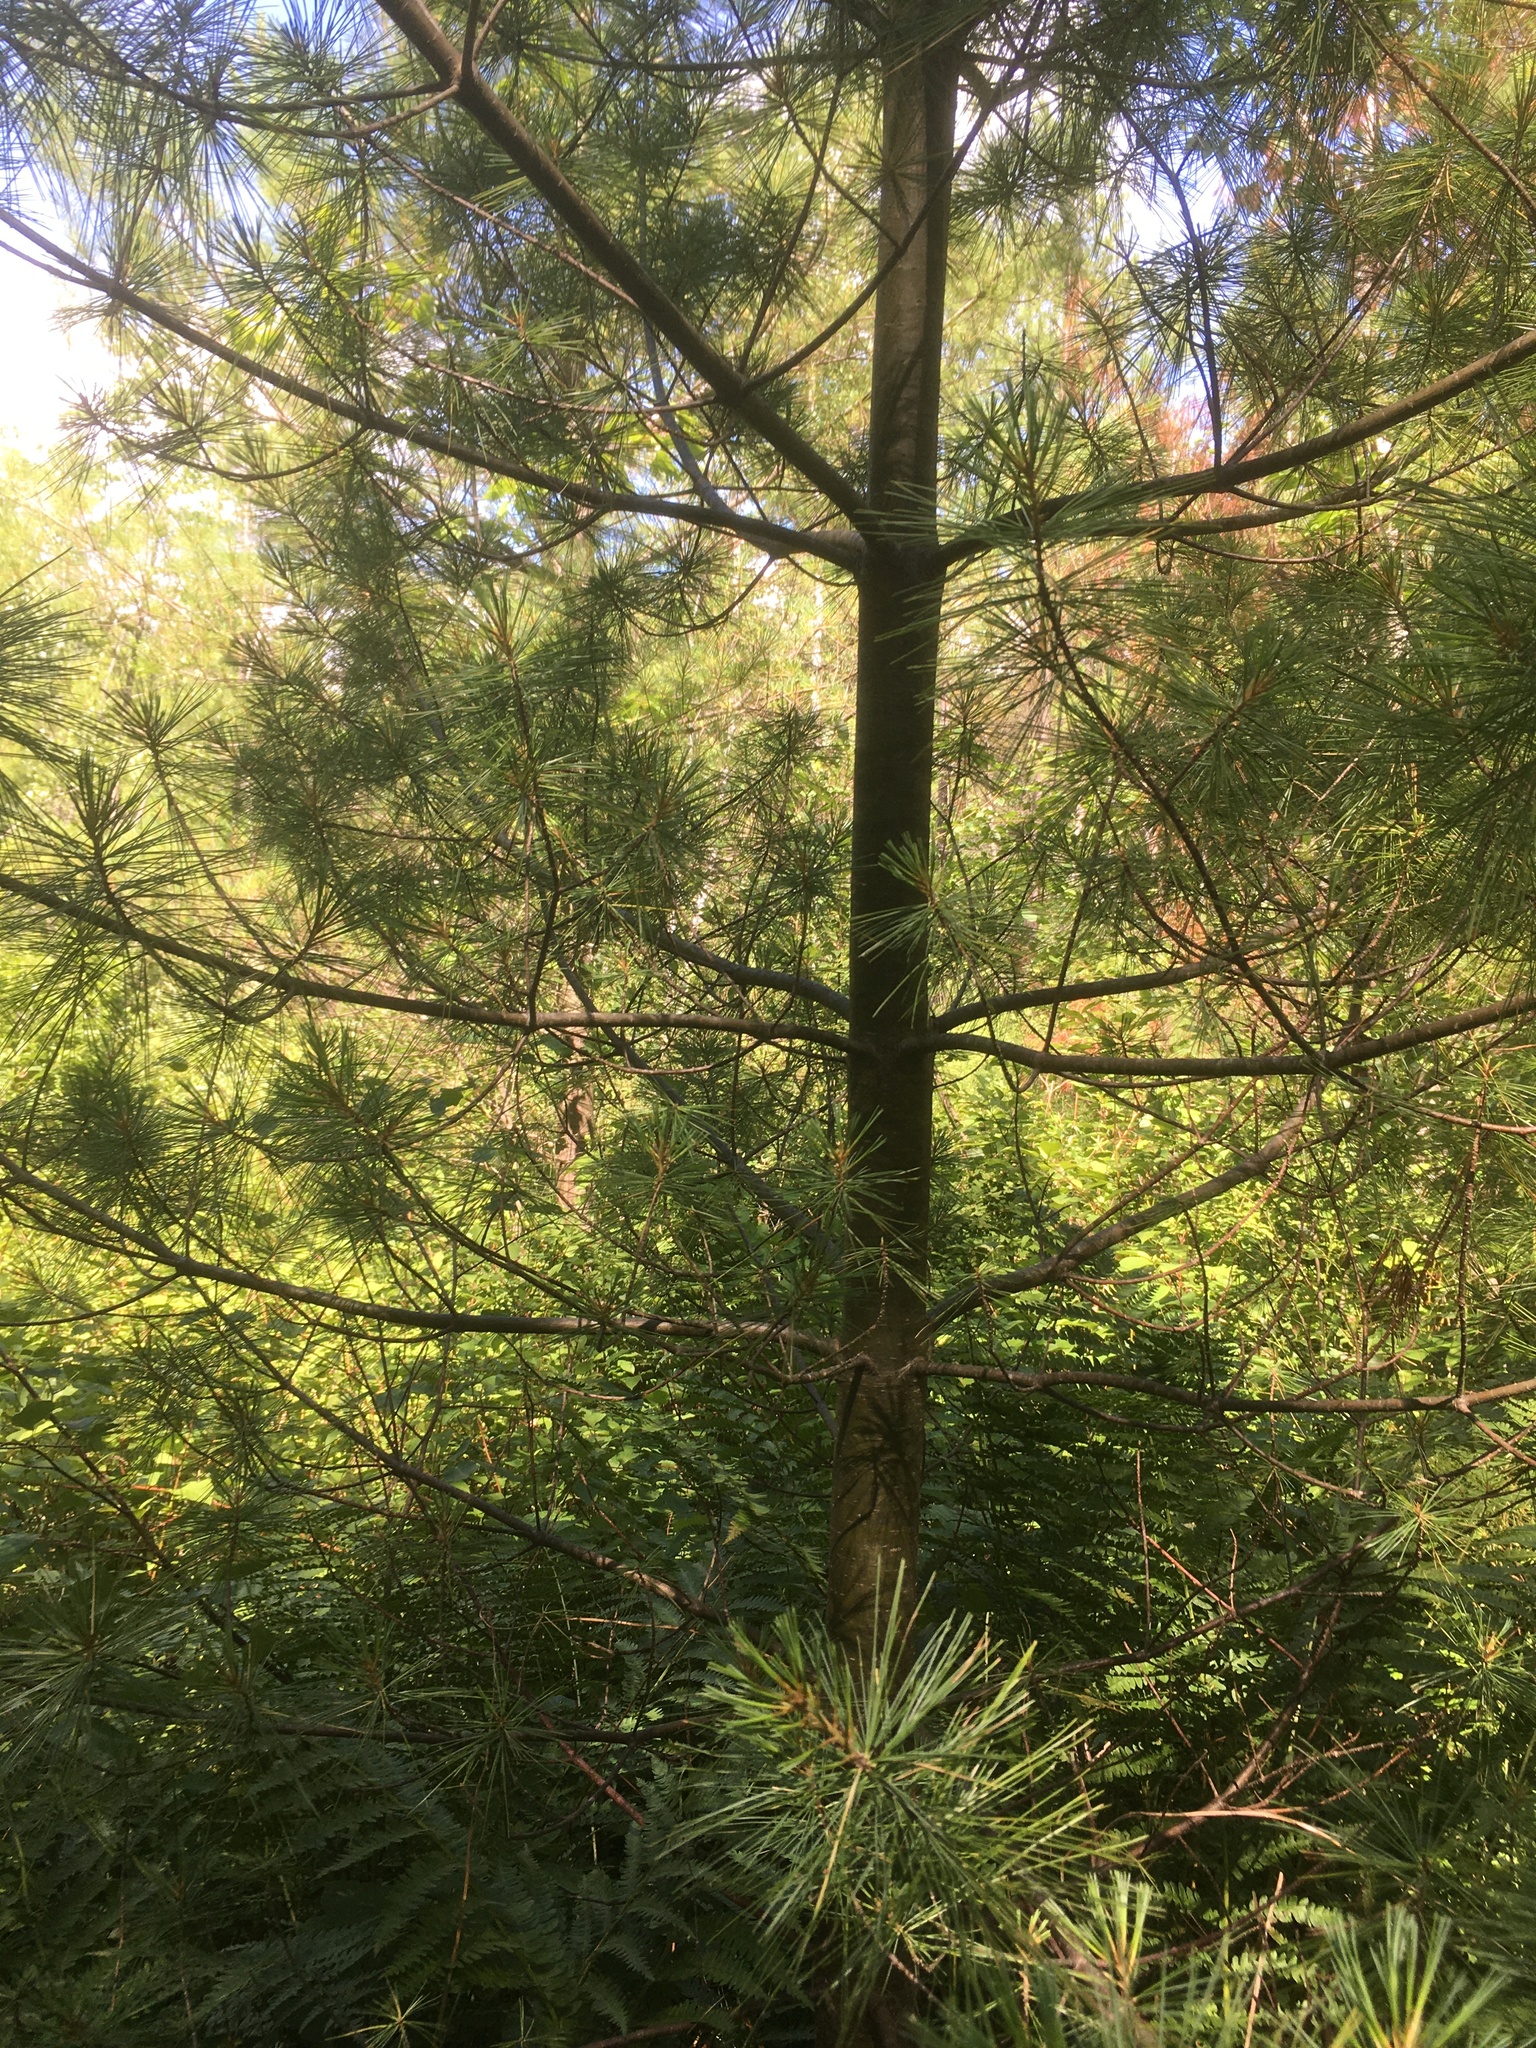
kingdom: Plantae
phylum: Tracheophyta
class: Pinopsida
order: Pinales
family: Pinaceae
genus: Pinus
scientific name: Pinus strobus
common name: Weymouth pine
